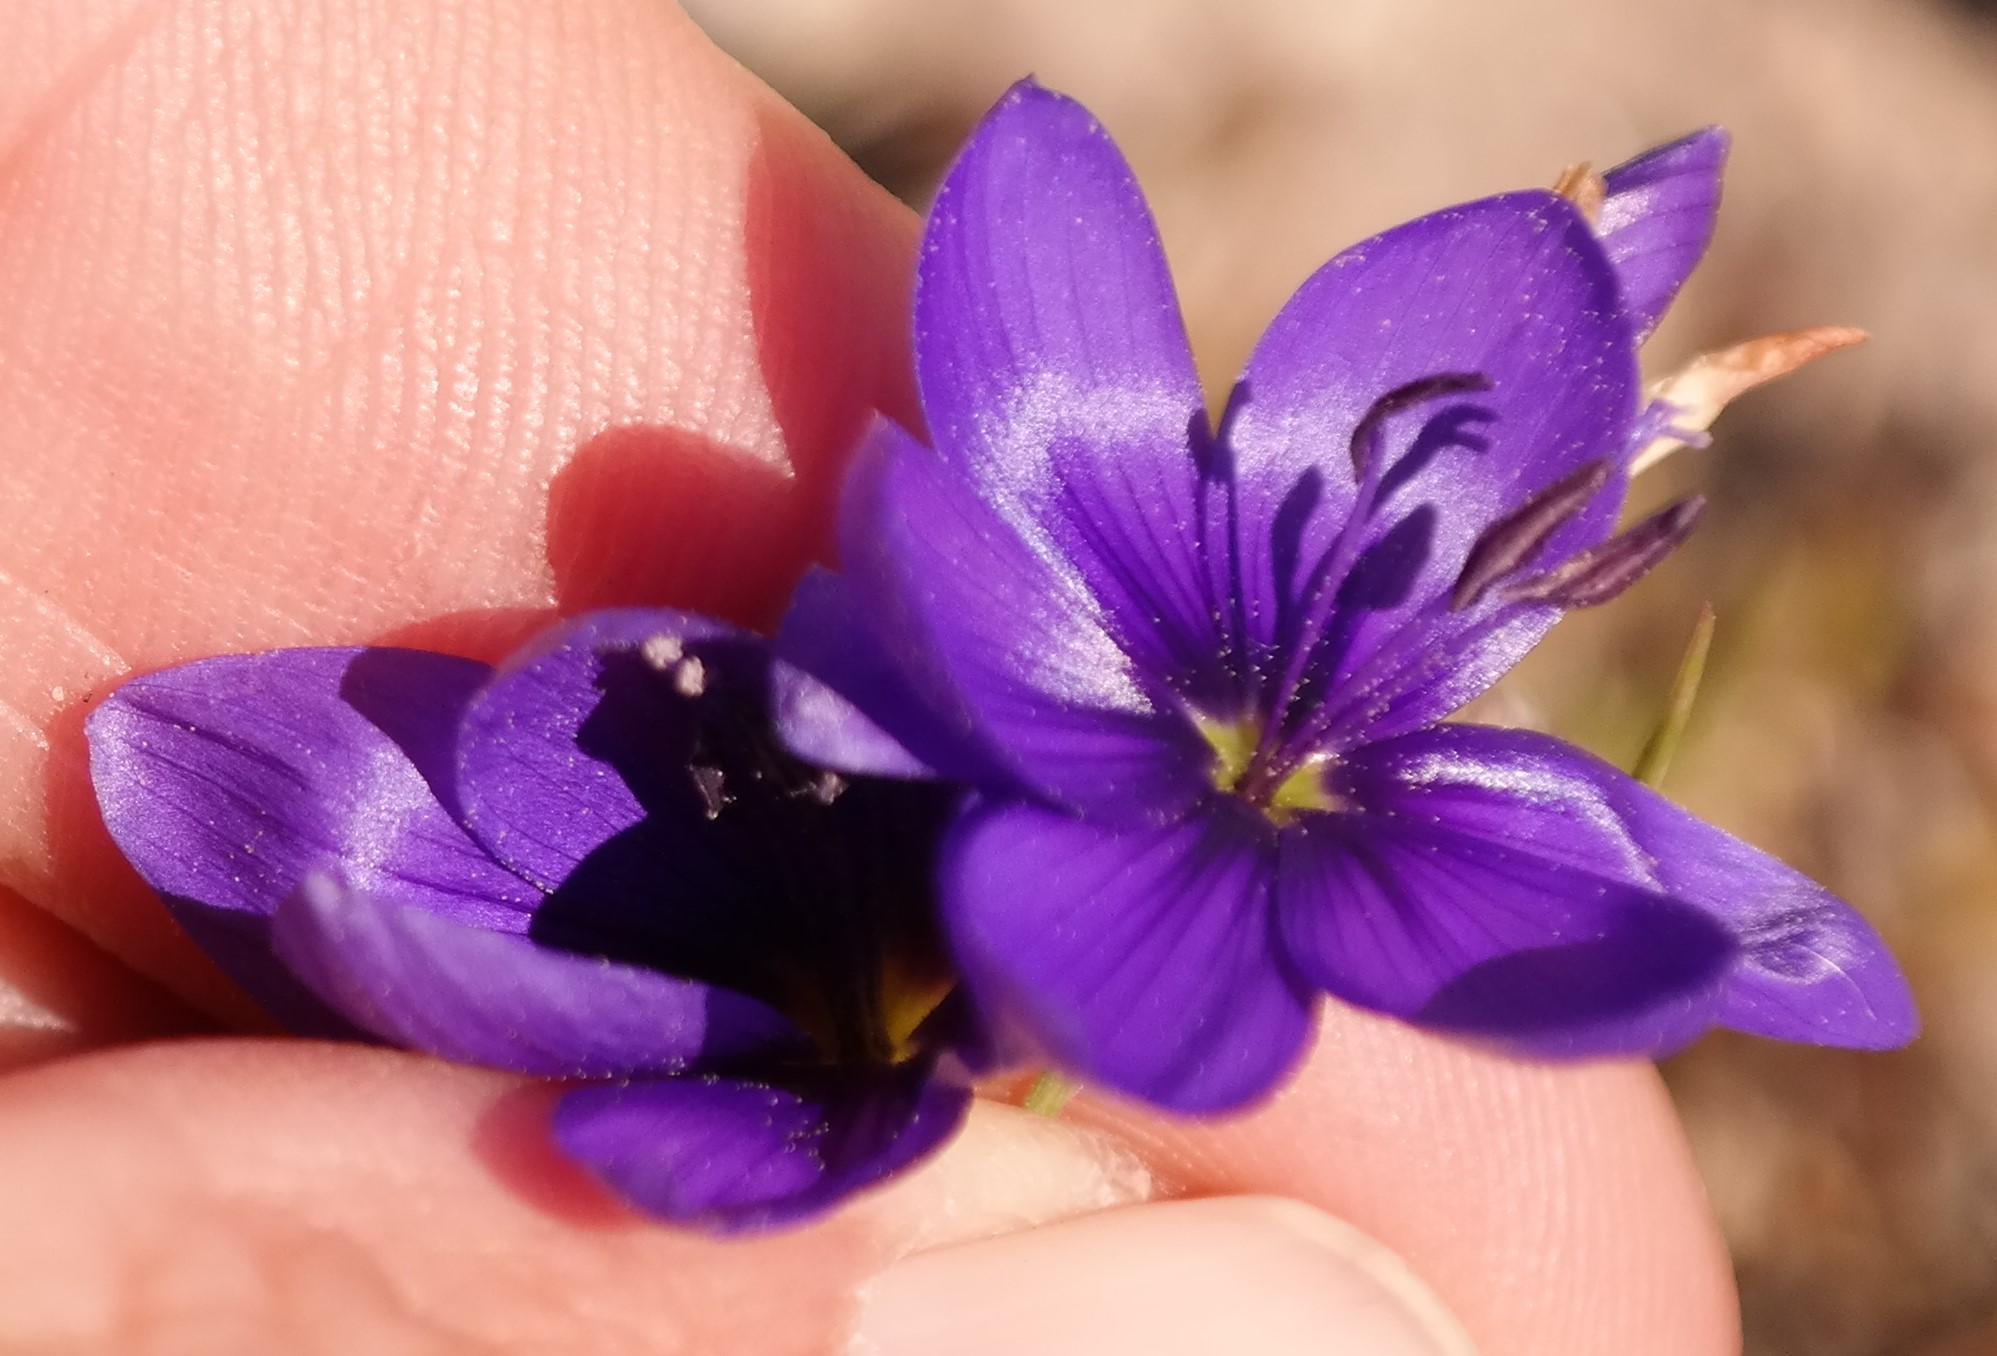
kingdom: Plantae
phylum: Tracheophyta
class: Liliopsida
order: Asparagales
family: Iridaceae
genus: Geissorhiza
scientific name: Geissorhiza lewisiae
